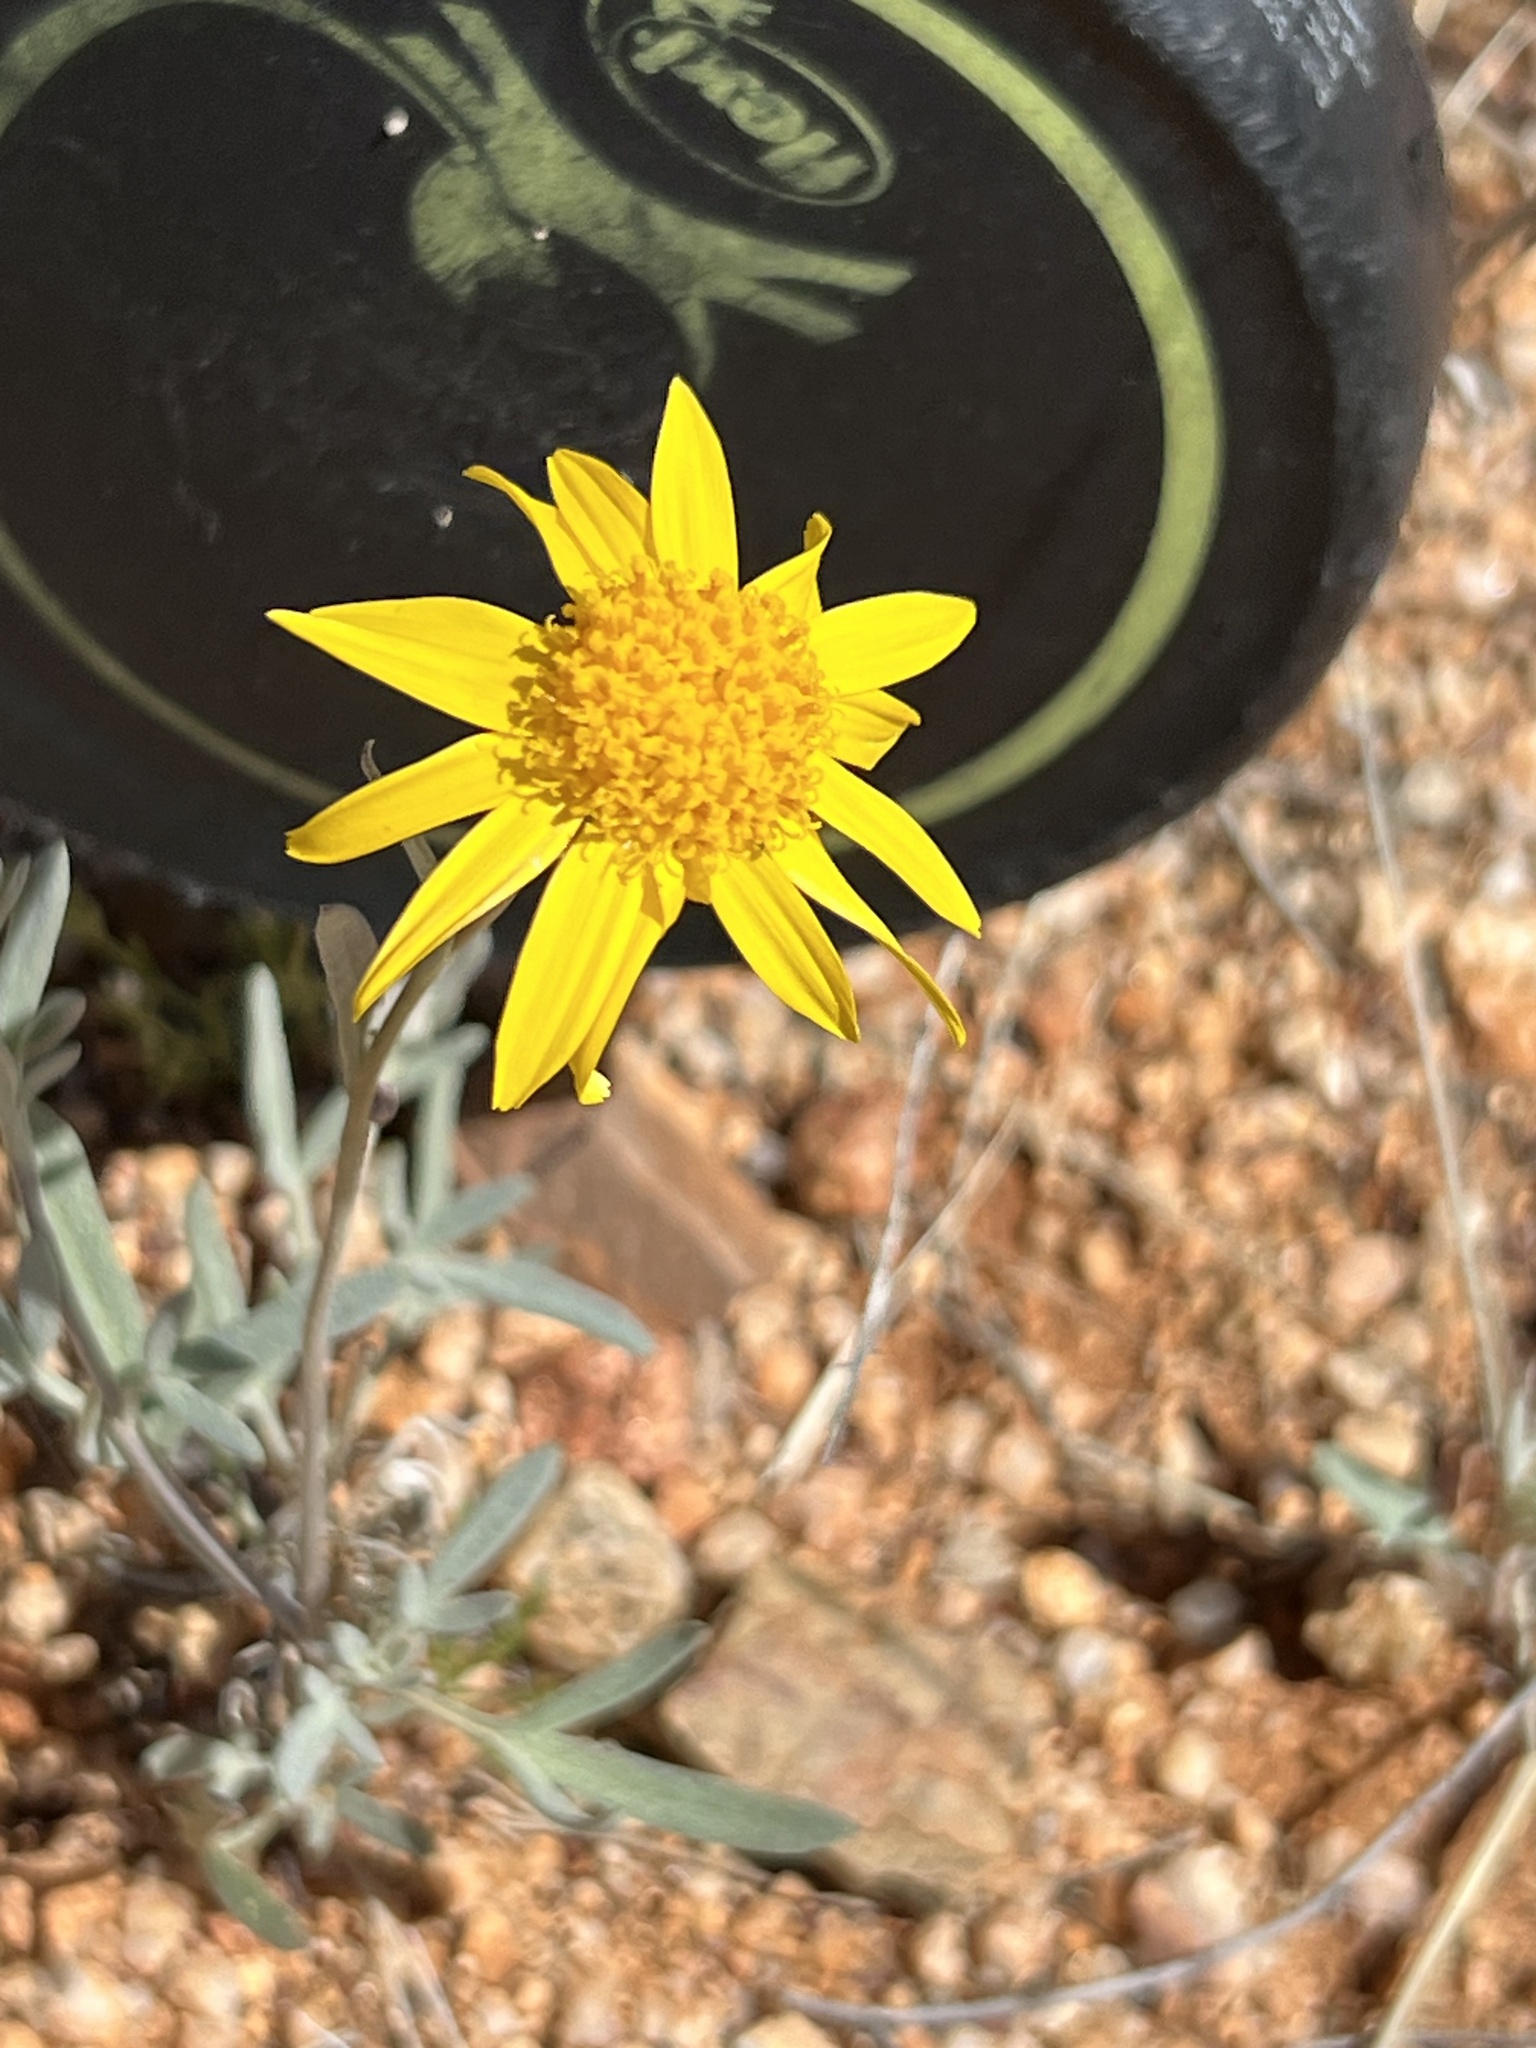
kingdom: Plantae
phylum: Tracheophyta
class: Magnoliopsida
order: Asterales
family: Asteraceae
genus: Picradeniopsis
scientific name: Picradeniopsis absinthifolia
